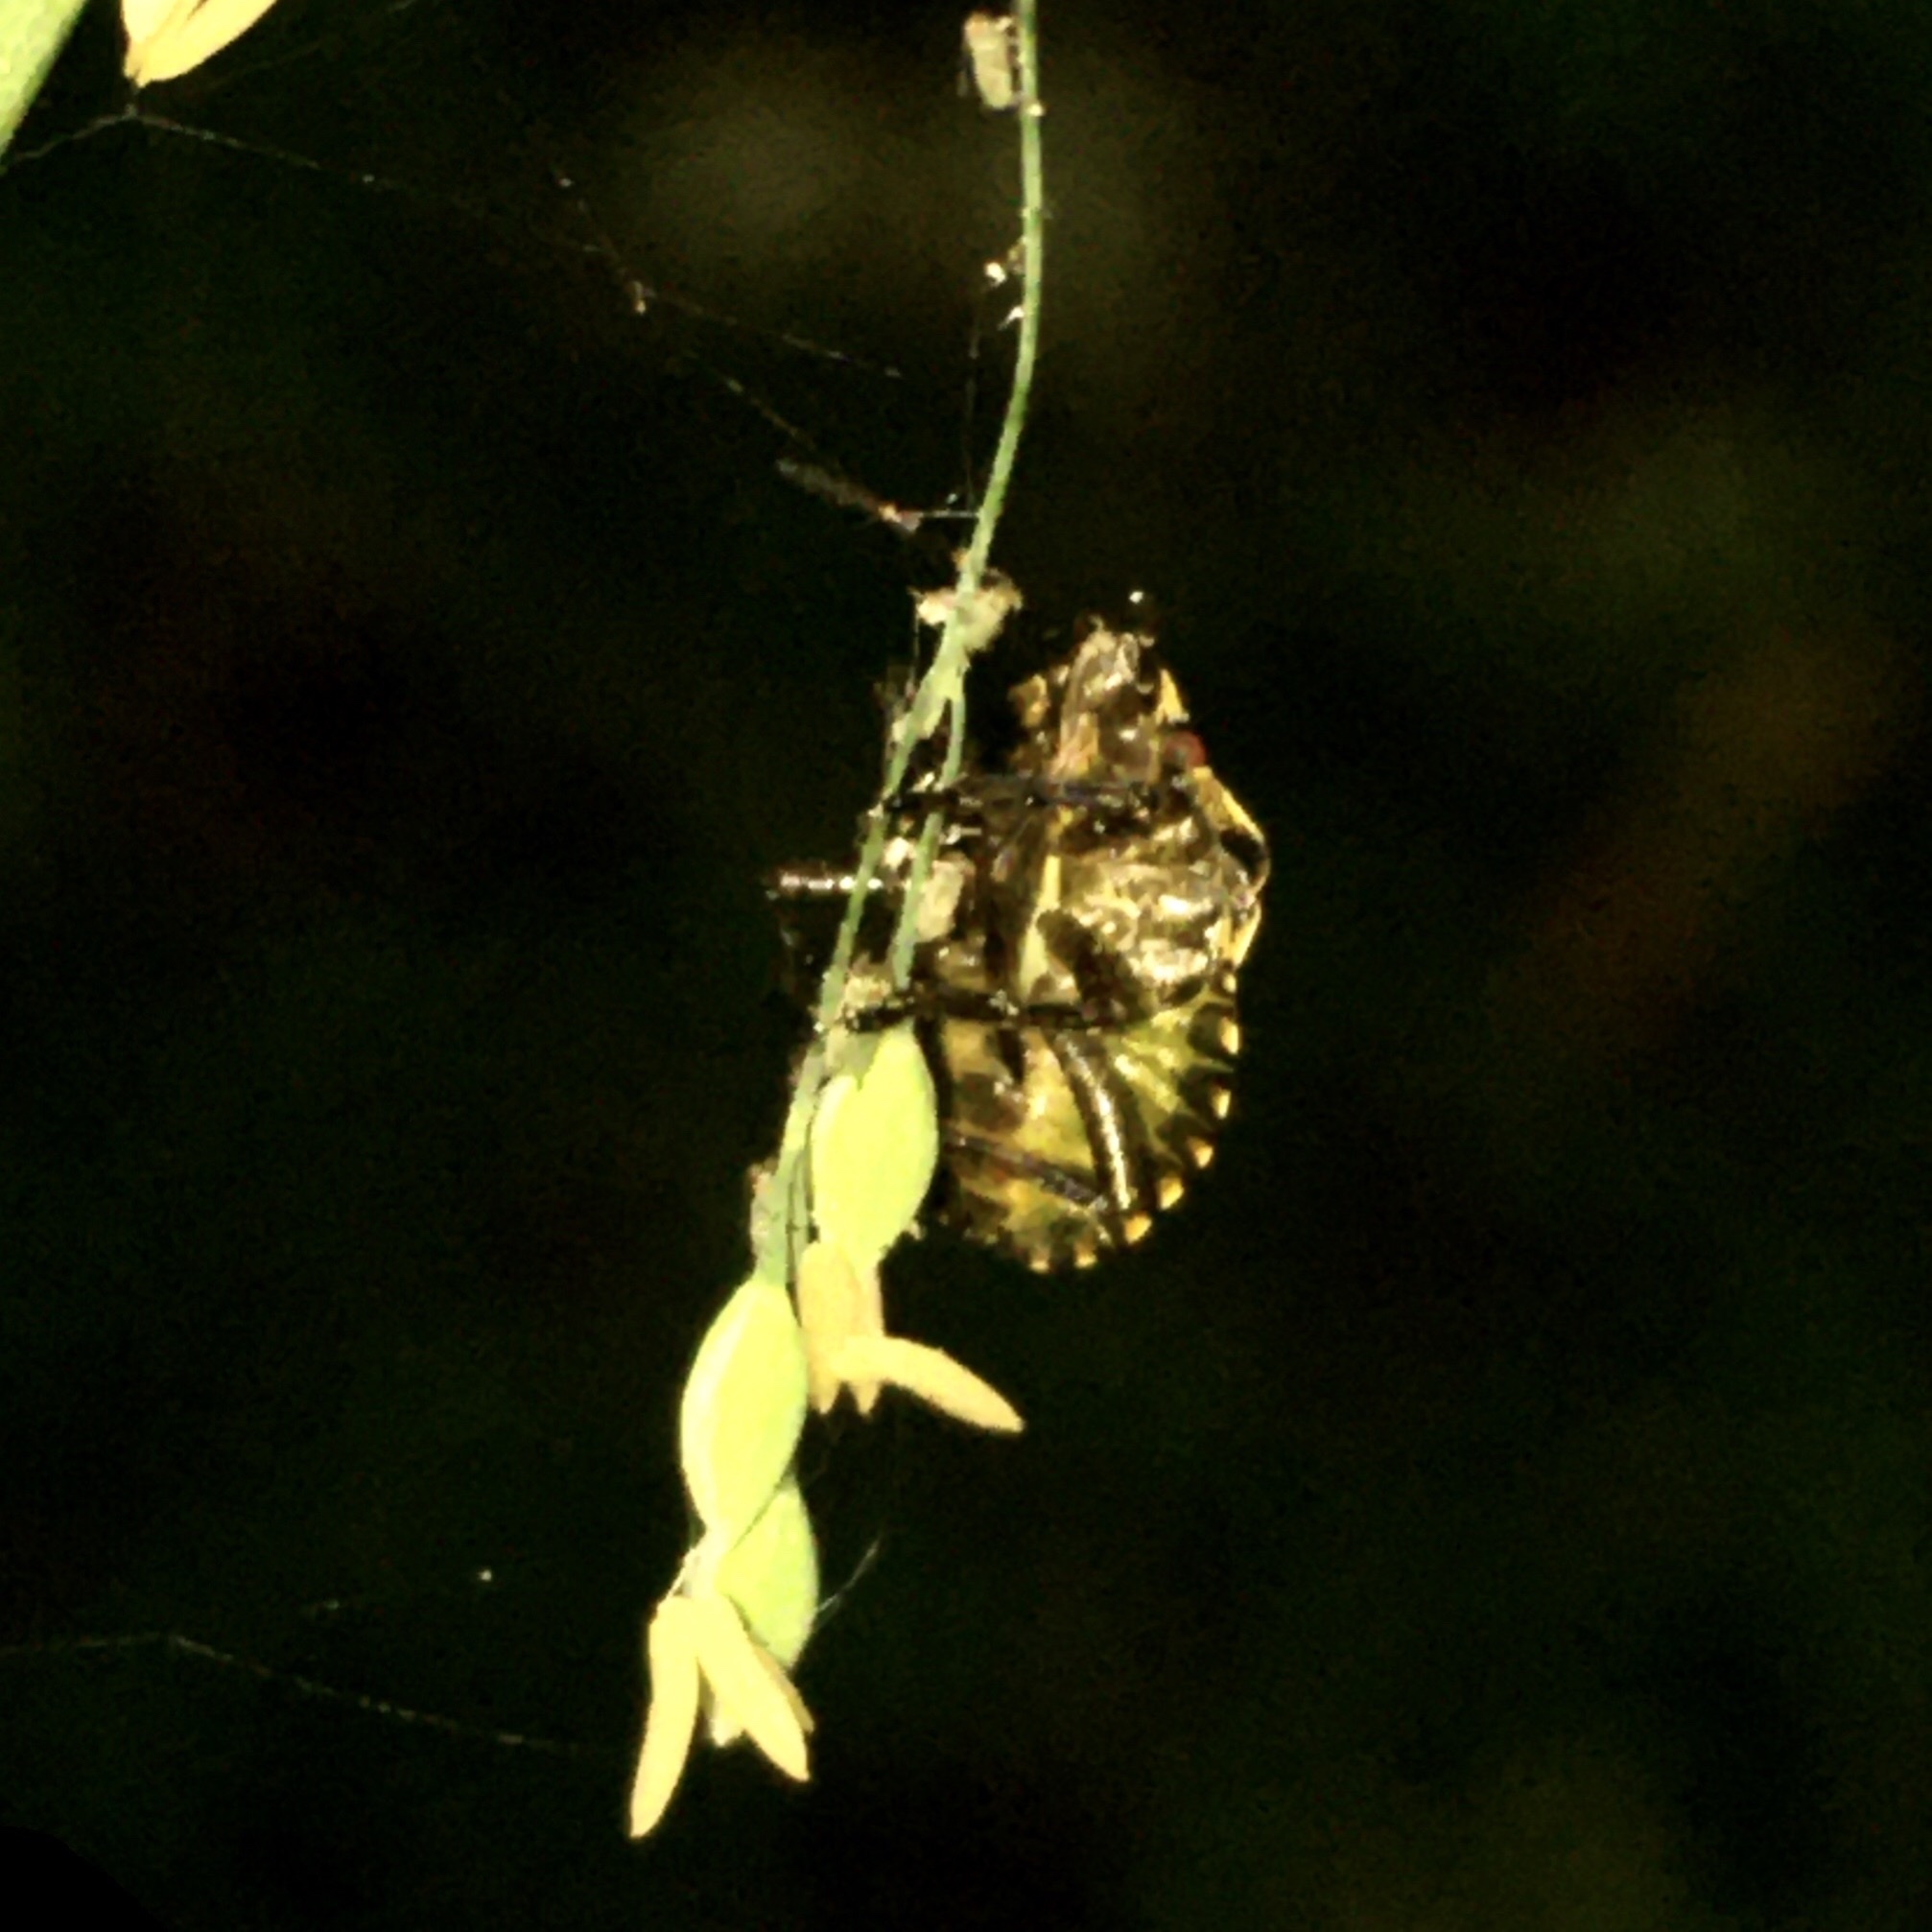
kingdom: Animalia
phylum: Arthropoda
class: Insecta
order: Hemiptera
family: Pentatomidae
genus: Pentatoma
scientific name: Pentatoma rufipes
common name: Forest bug
